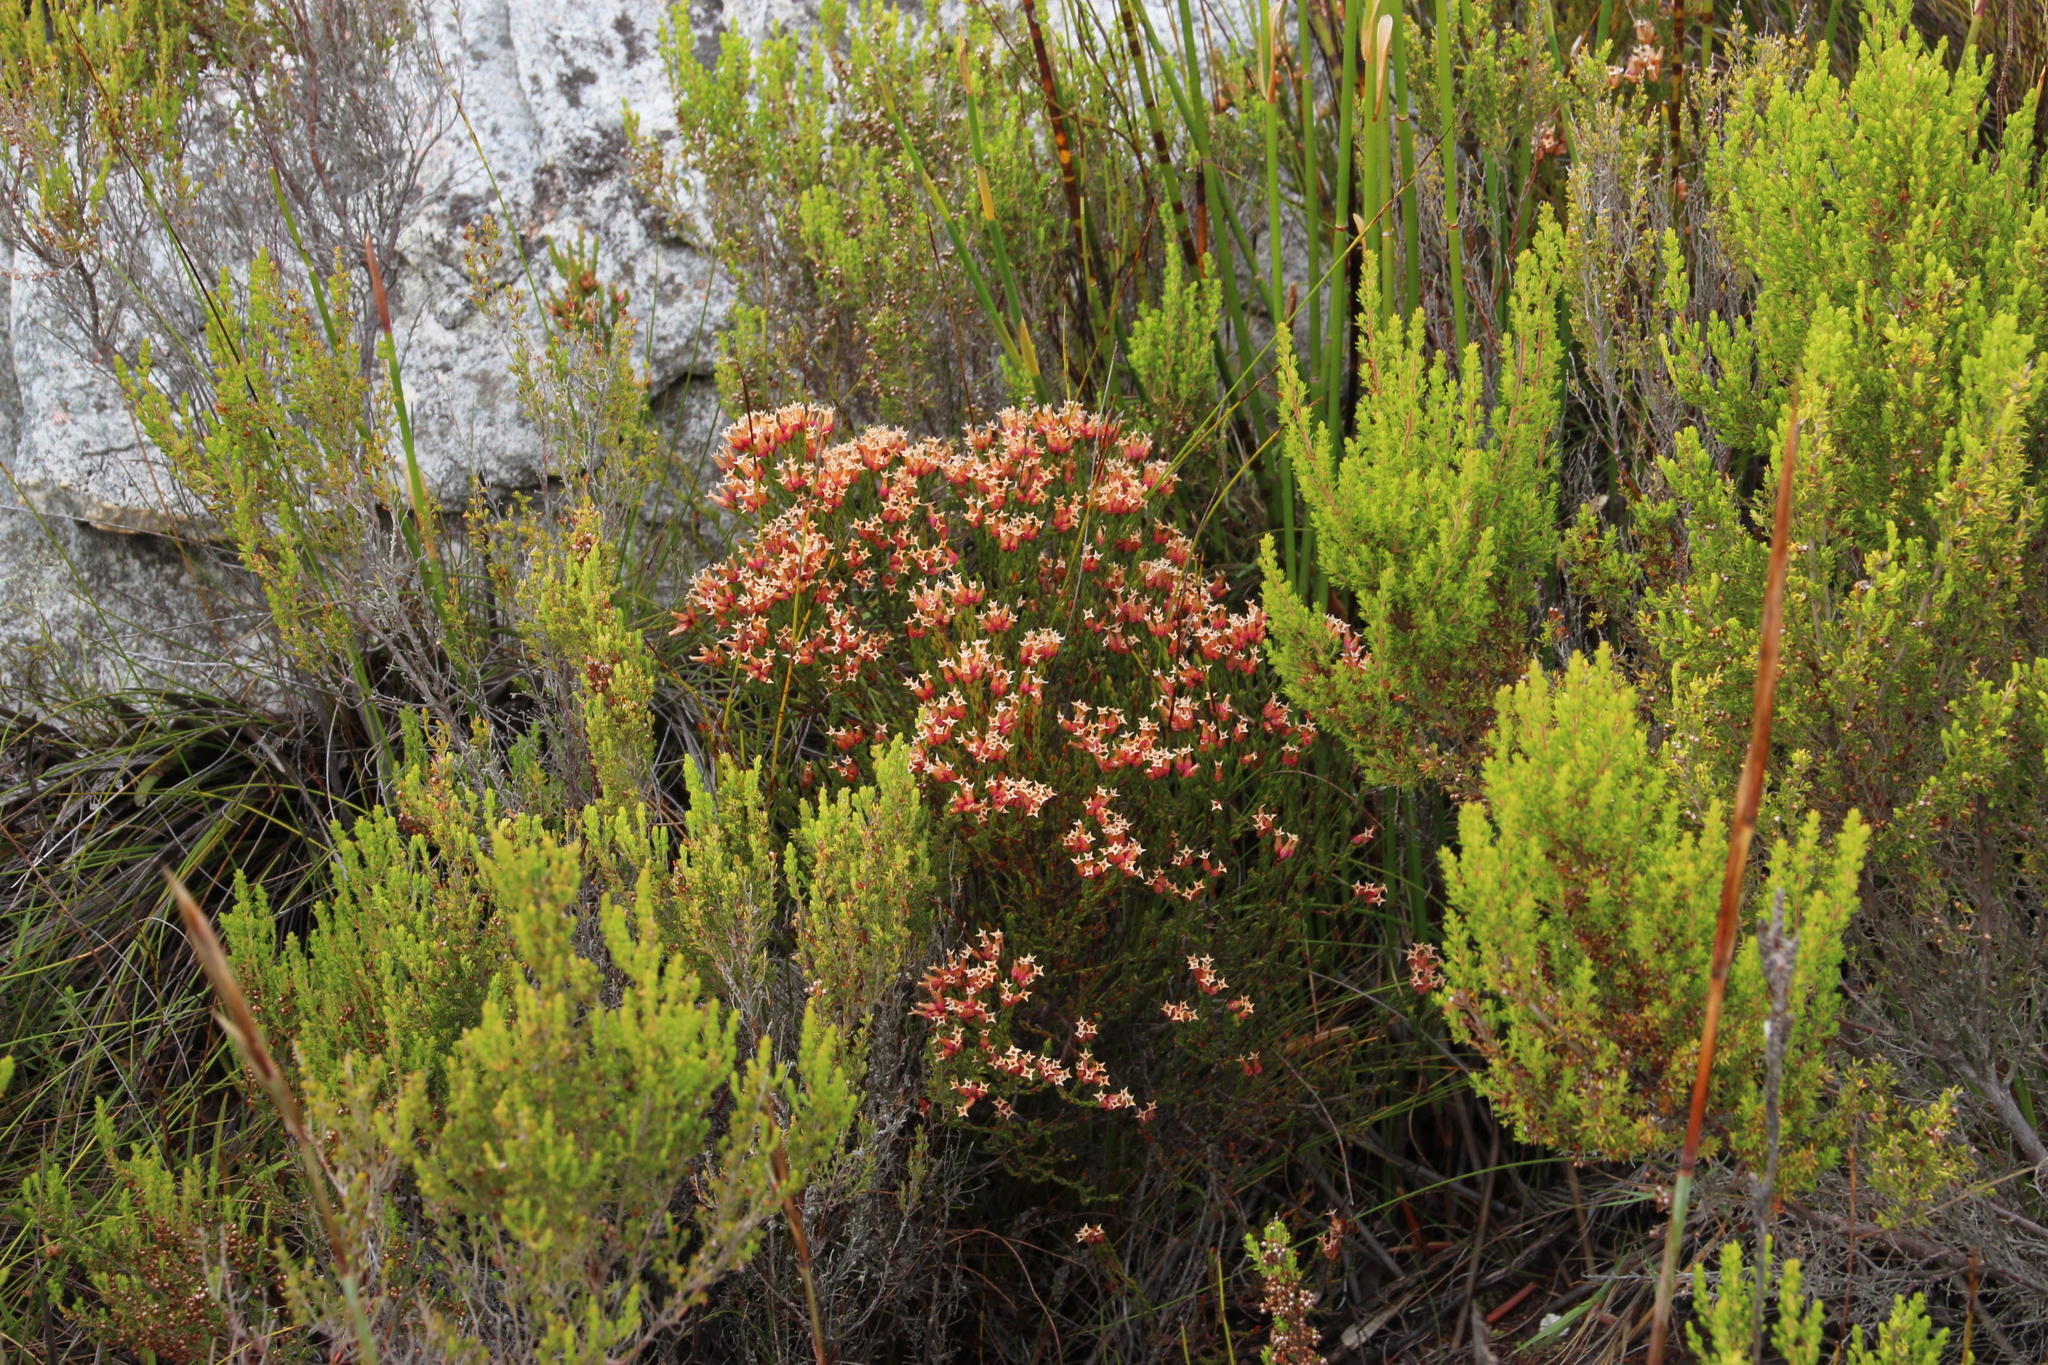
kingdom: Plantae
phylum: Tracheophyta
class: Magnoliopsida
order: Ericales
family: Ericaceae
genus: Erica
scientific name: Erica steinbergiana
